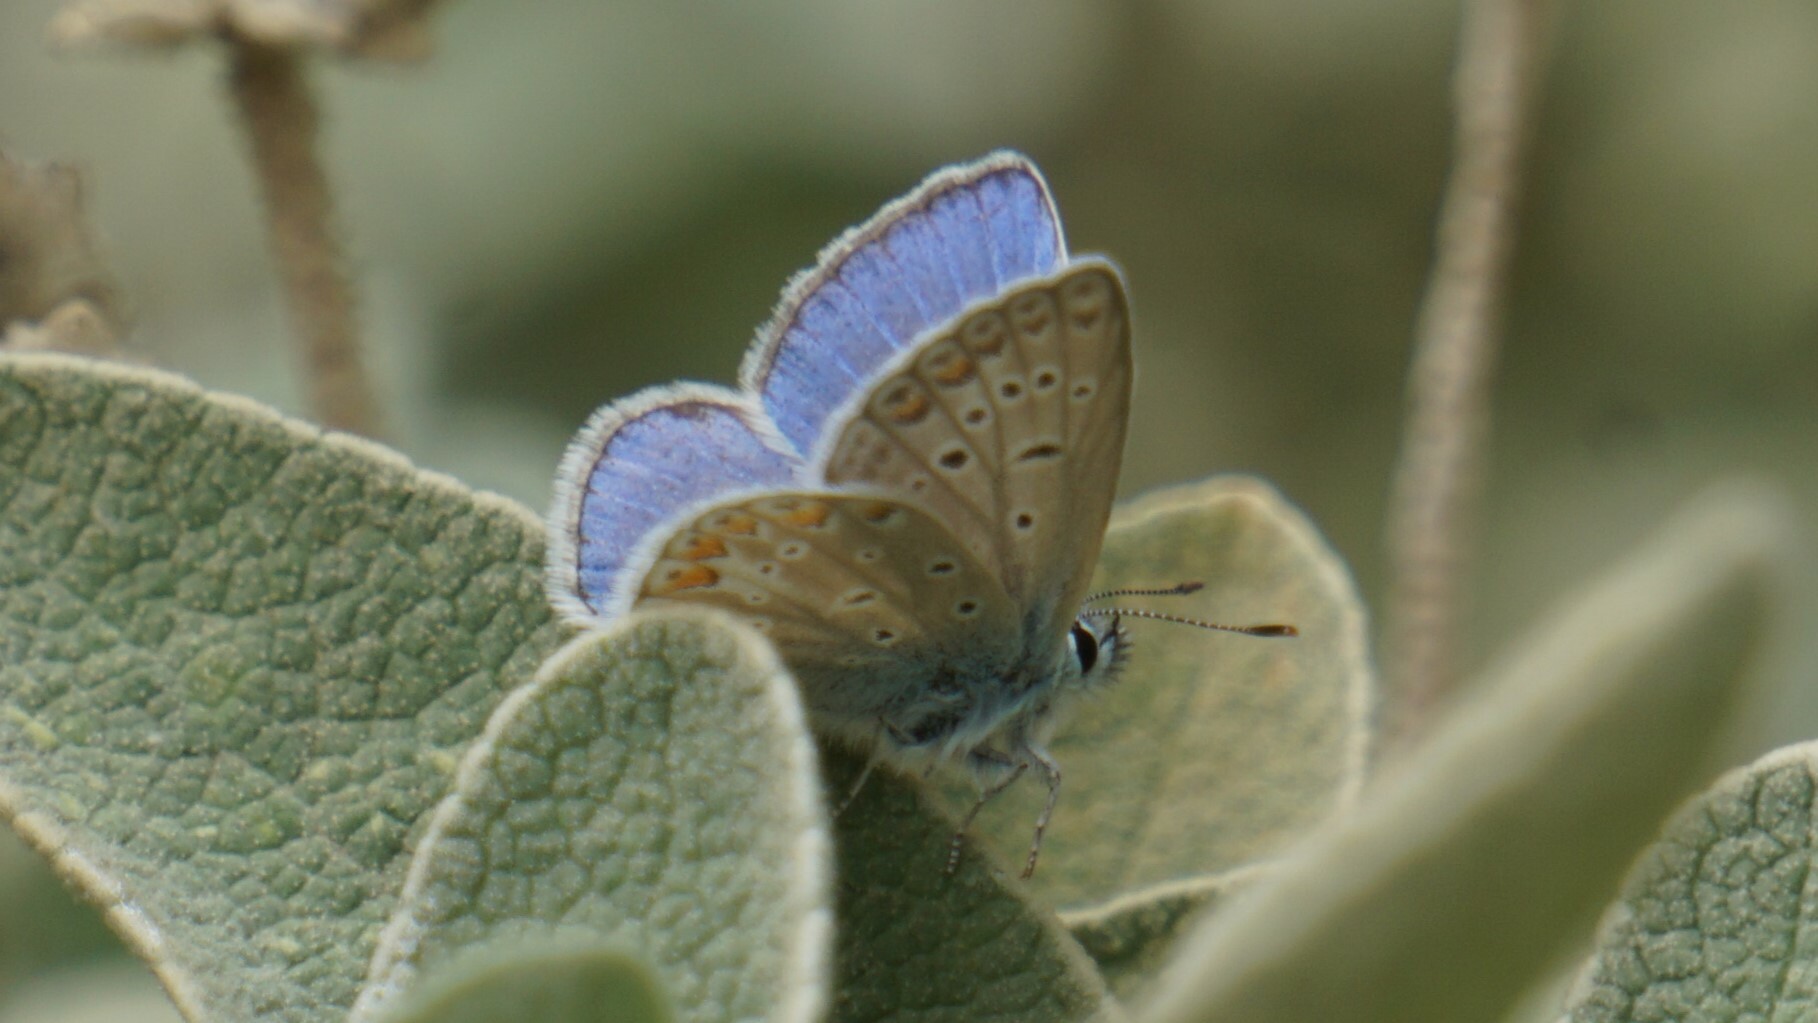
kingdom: Animalia
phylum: Arthropoda
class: Insecta
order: Lepidoptera
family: Lycaenidae
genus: Polyommatus
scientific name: Polyommatus icarus
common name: Common blue
